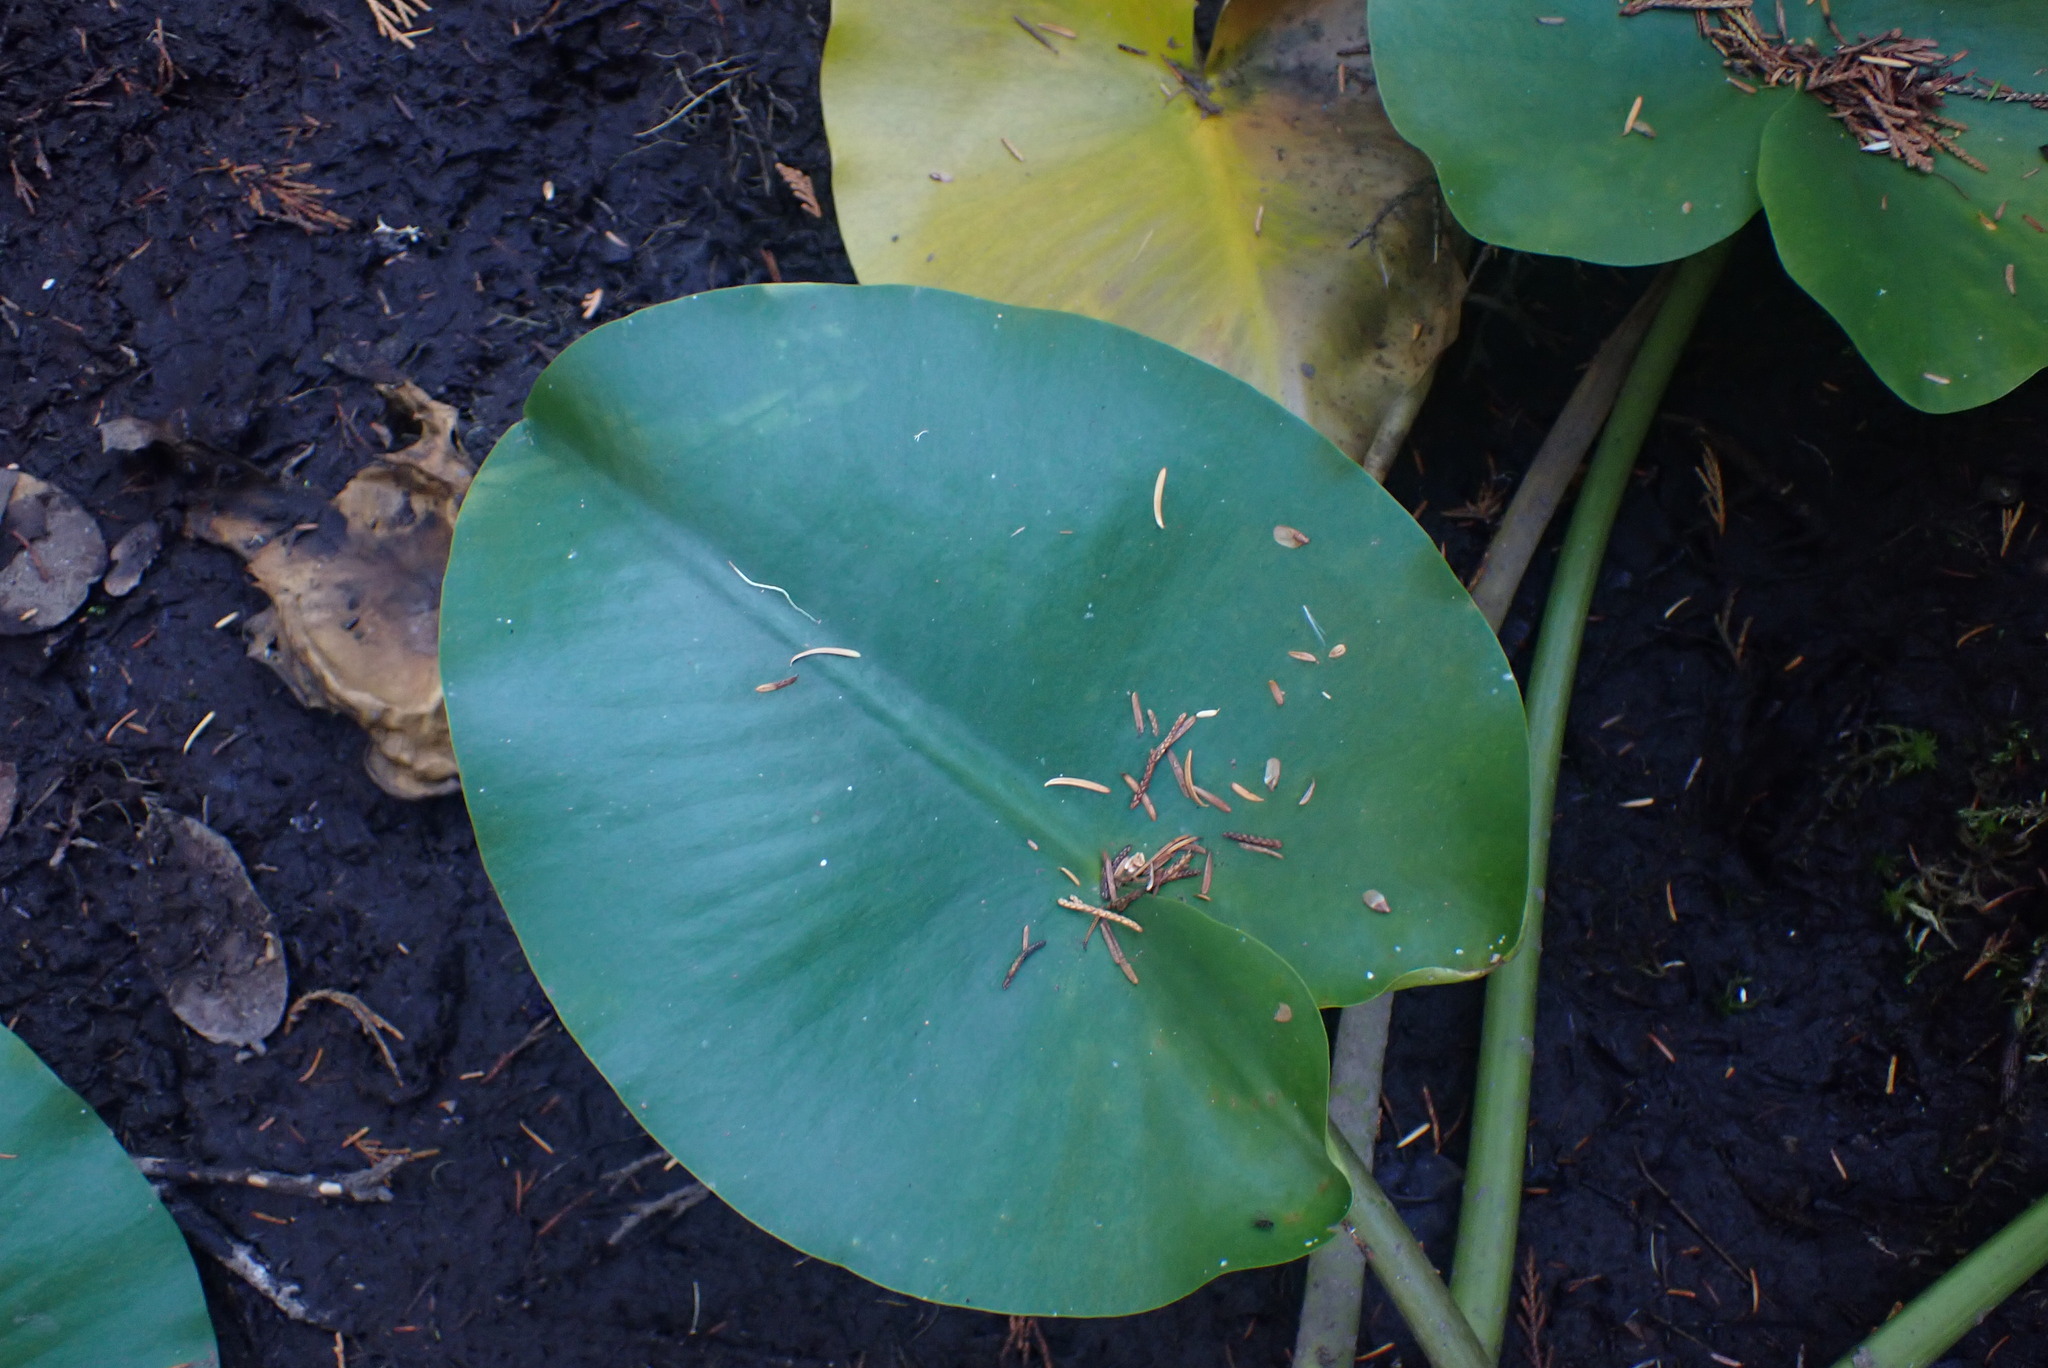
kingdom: Plantae
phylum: Tracheophyta
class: Magnoliopsida
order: Nymphaeales
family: Nymphaeaceae
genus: Nuphar
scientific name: Nuphar polysepala
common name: Rocky mountain cow-lily
